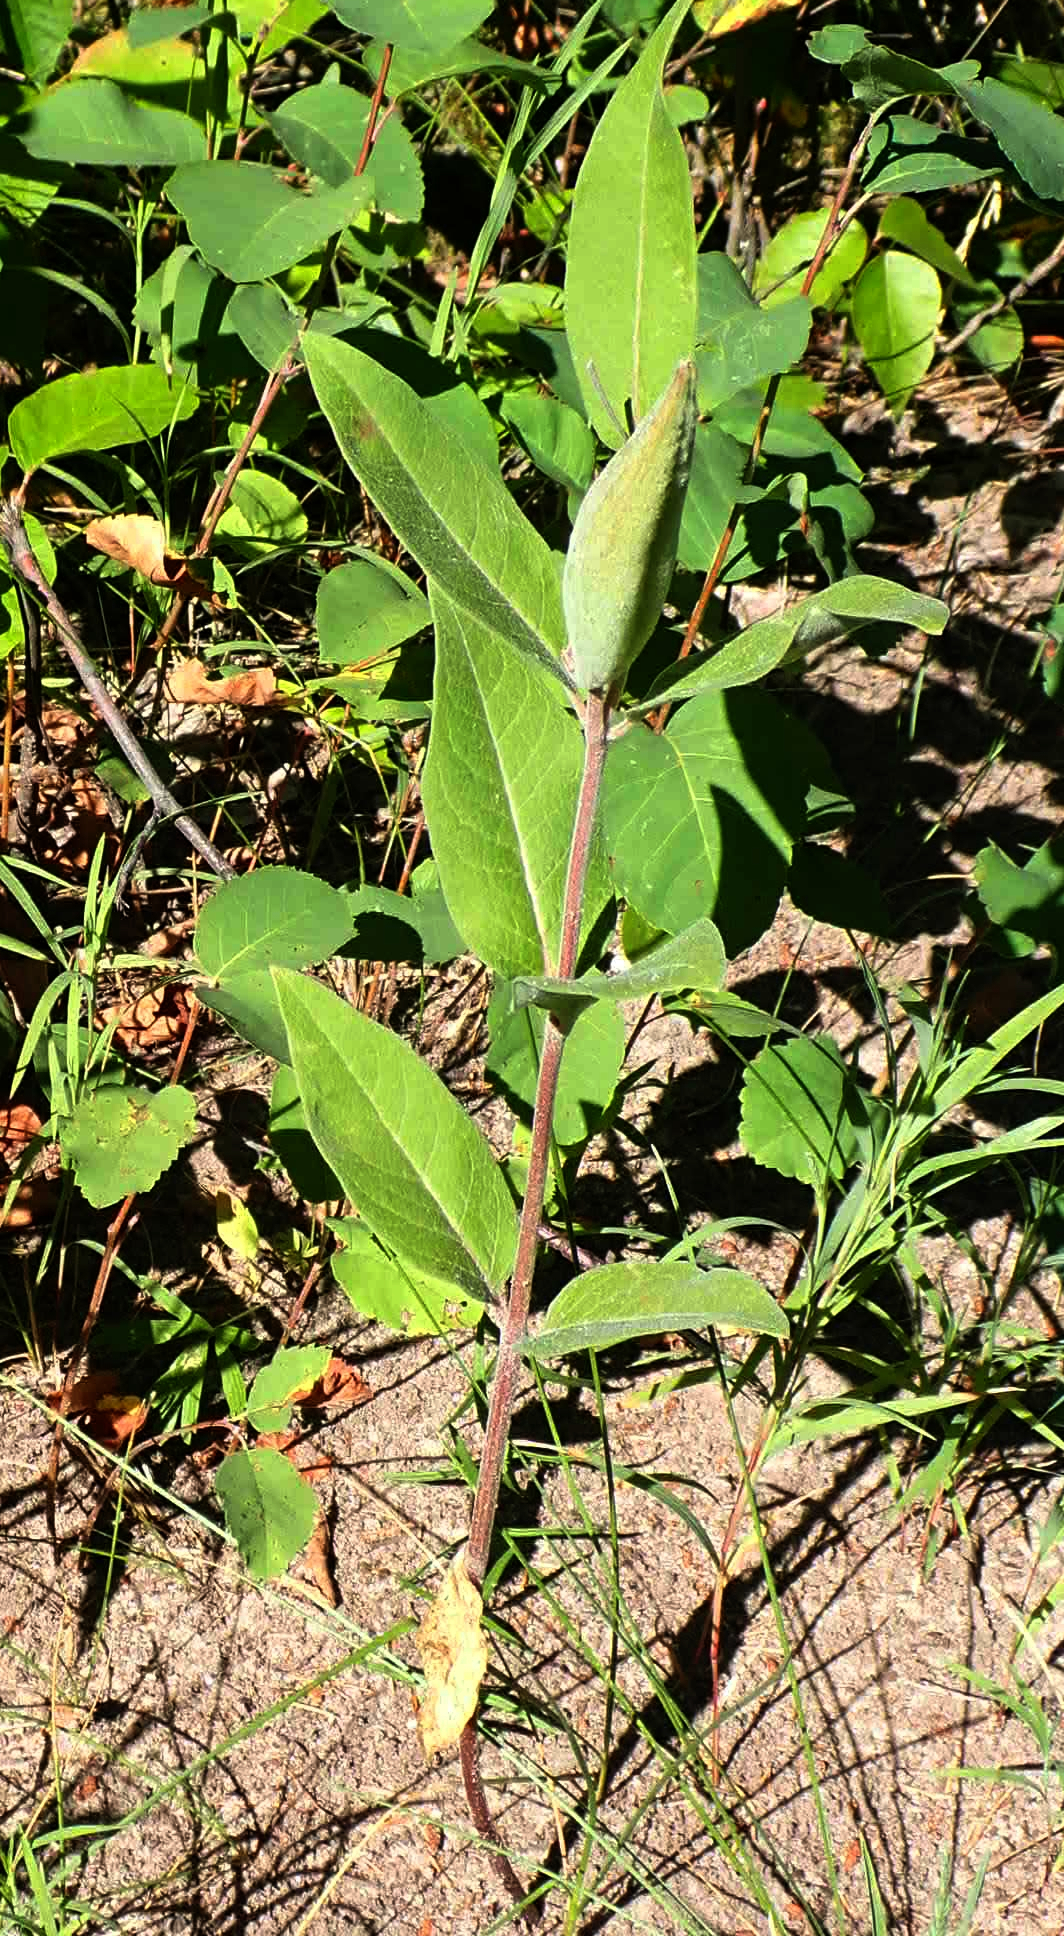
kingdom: Plantae
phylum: Tracheophyta
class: Magnoliopsida
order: Gentianales
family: Apocynaceae
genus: Asclepias
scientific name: Asclepias ovalifolia
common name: Dwarf milkweed
